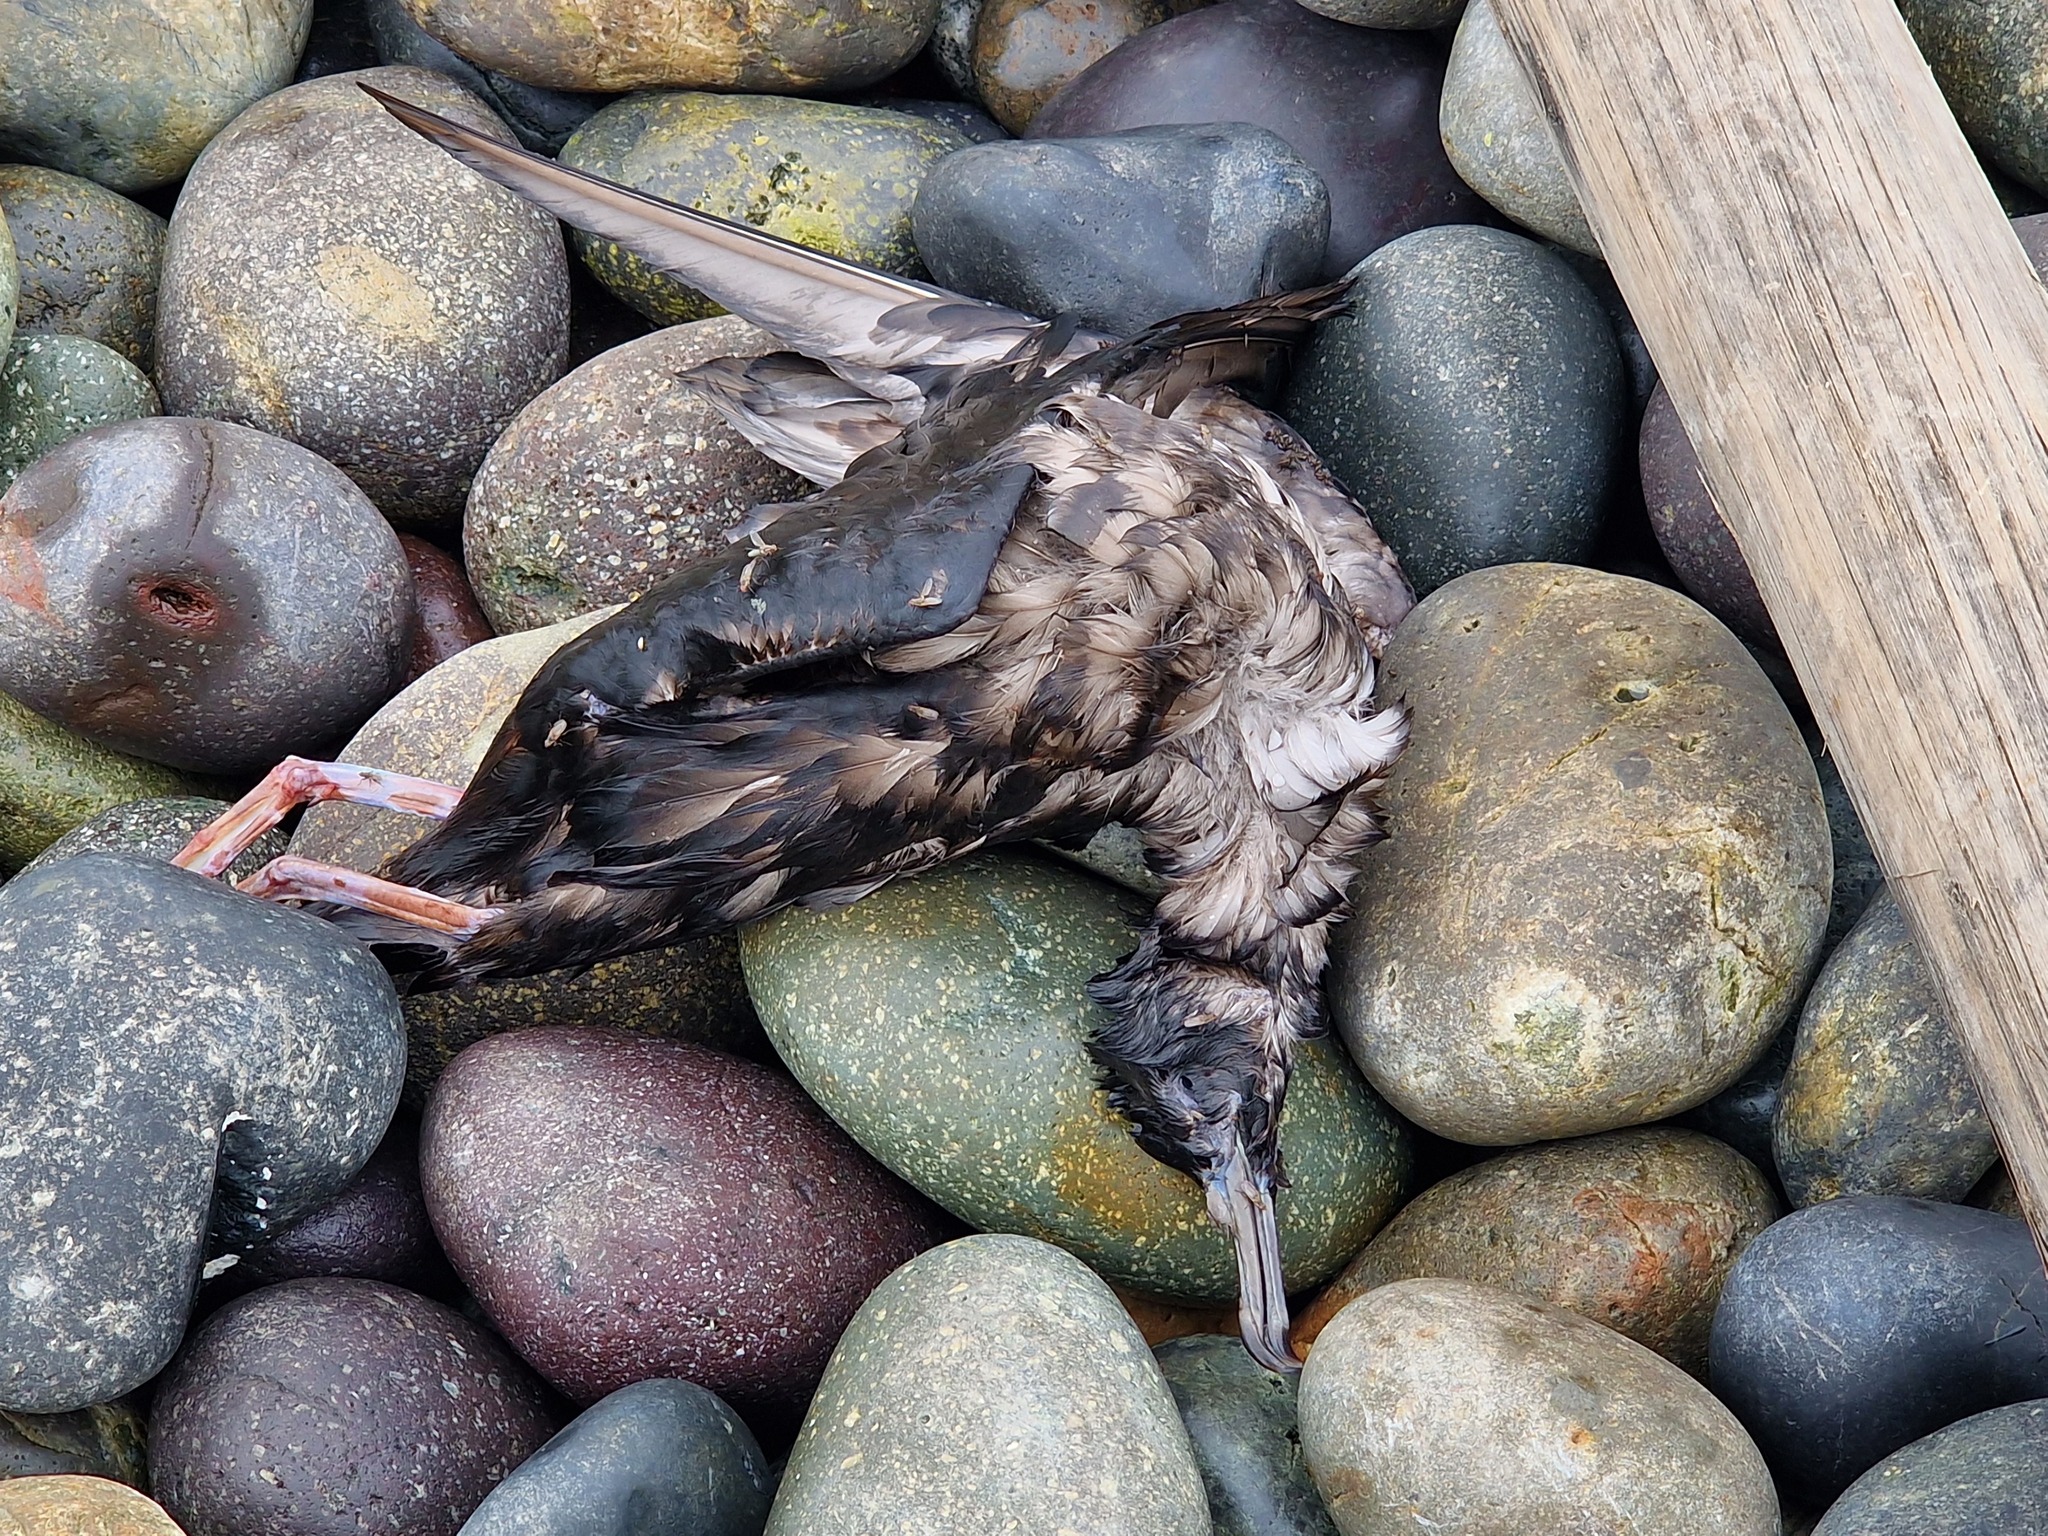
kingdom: Animalia
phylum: Chordata
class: Aves
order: Procellariiformes
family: Procellariidae
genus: Puffinus
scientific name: Puffinus griseus
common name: Sooty shearwater
